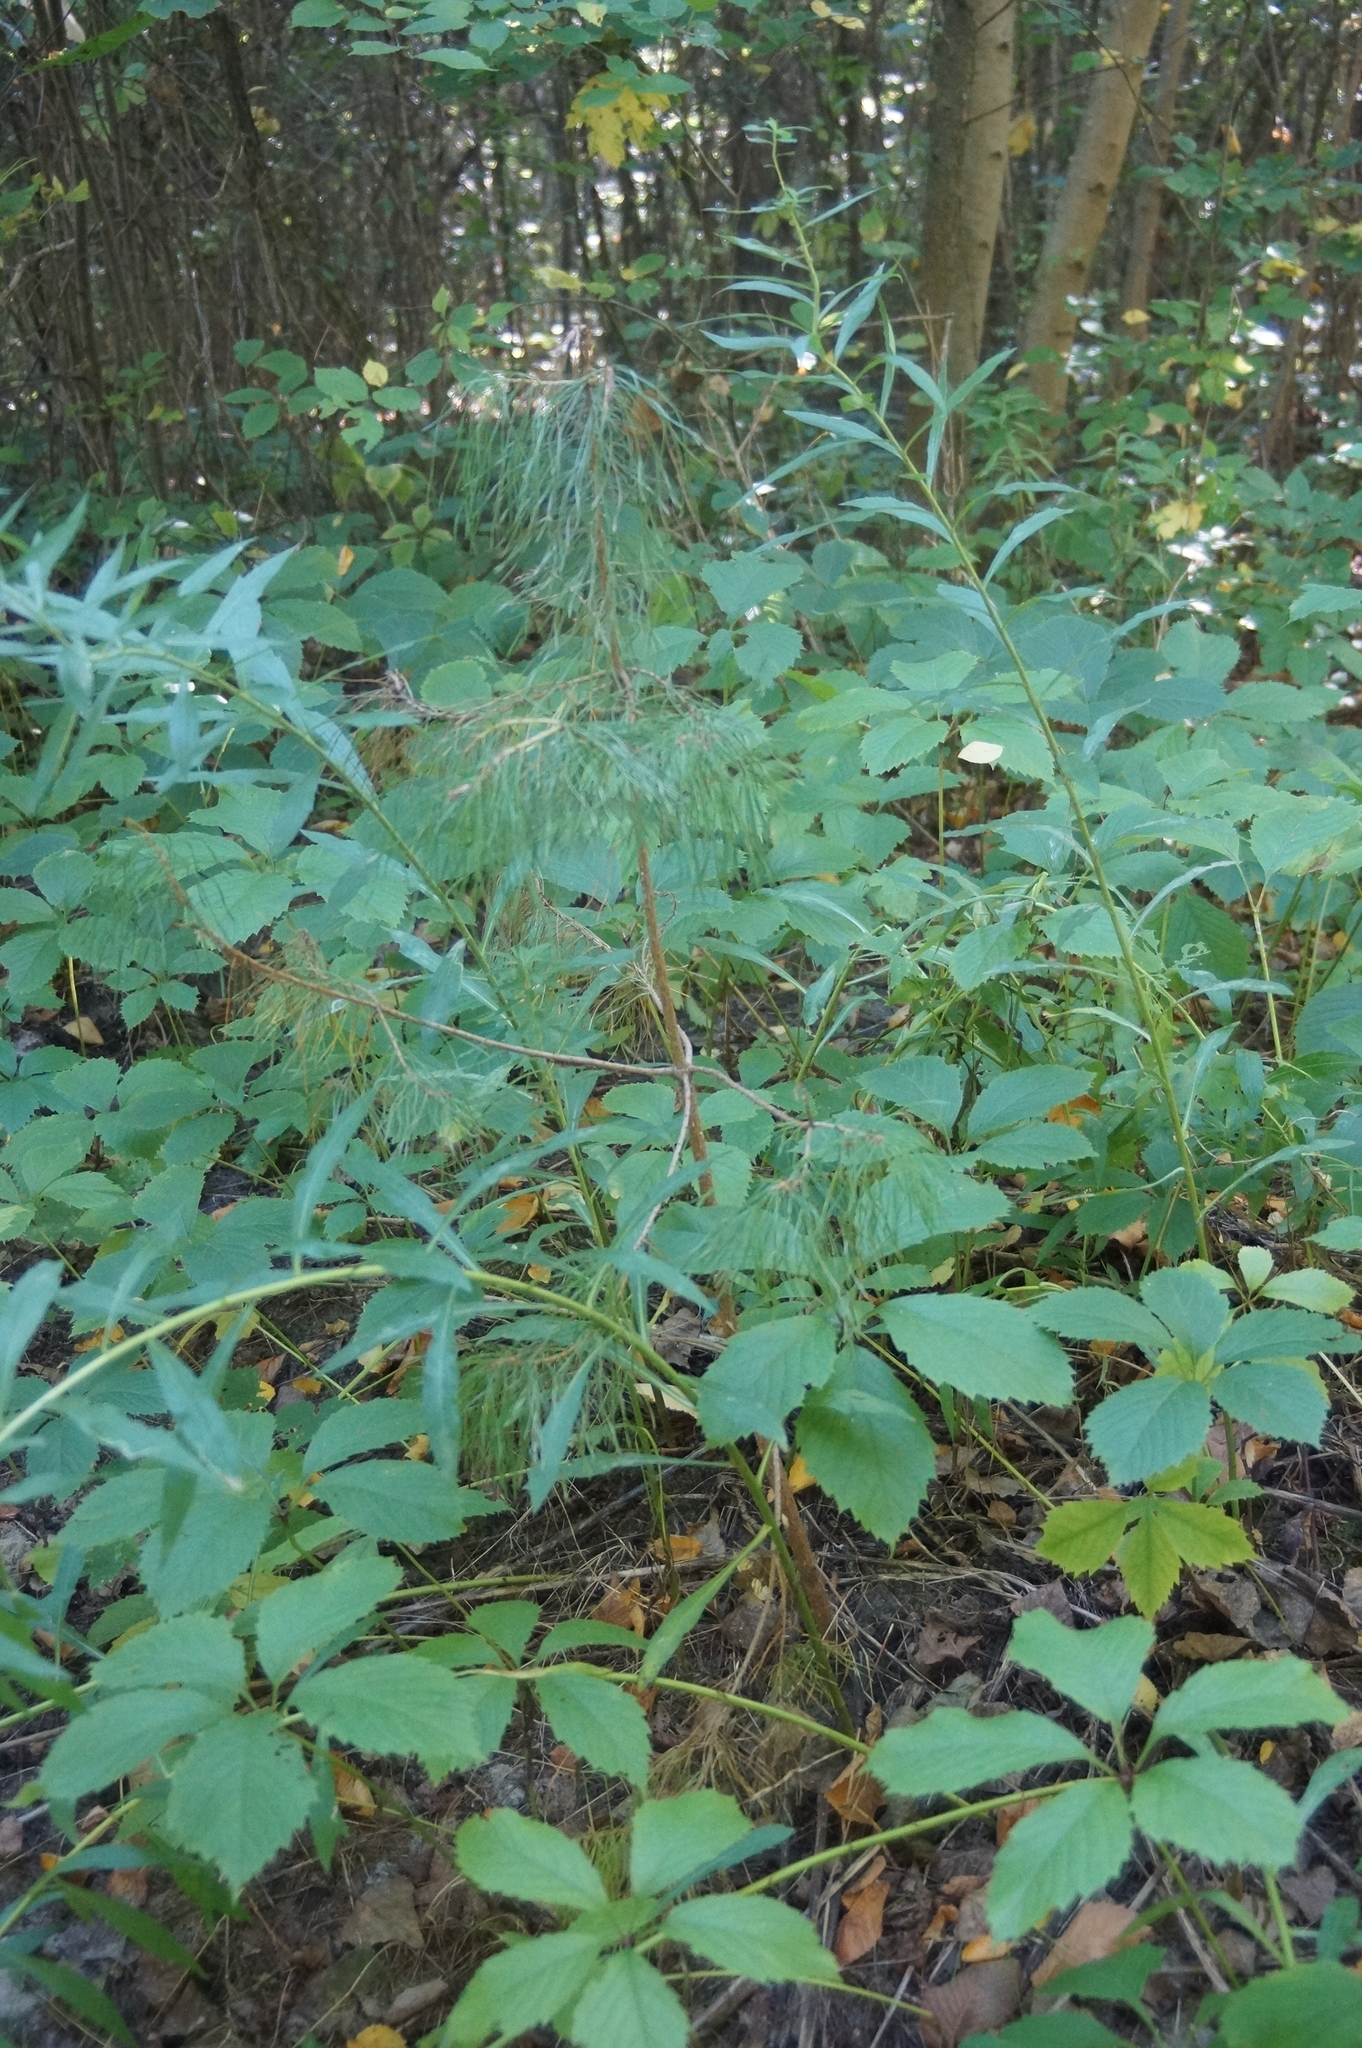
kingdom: Plantae
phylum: Tracheophyta
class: Pinopsida
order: Pinales
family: Pinaceae
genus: Pinus
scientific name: Pinus sylvestris
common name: Scots pine
